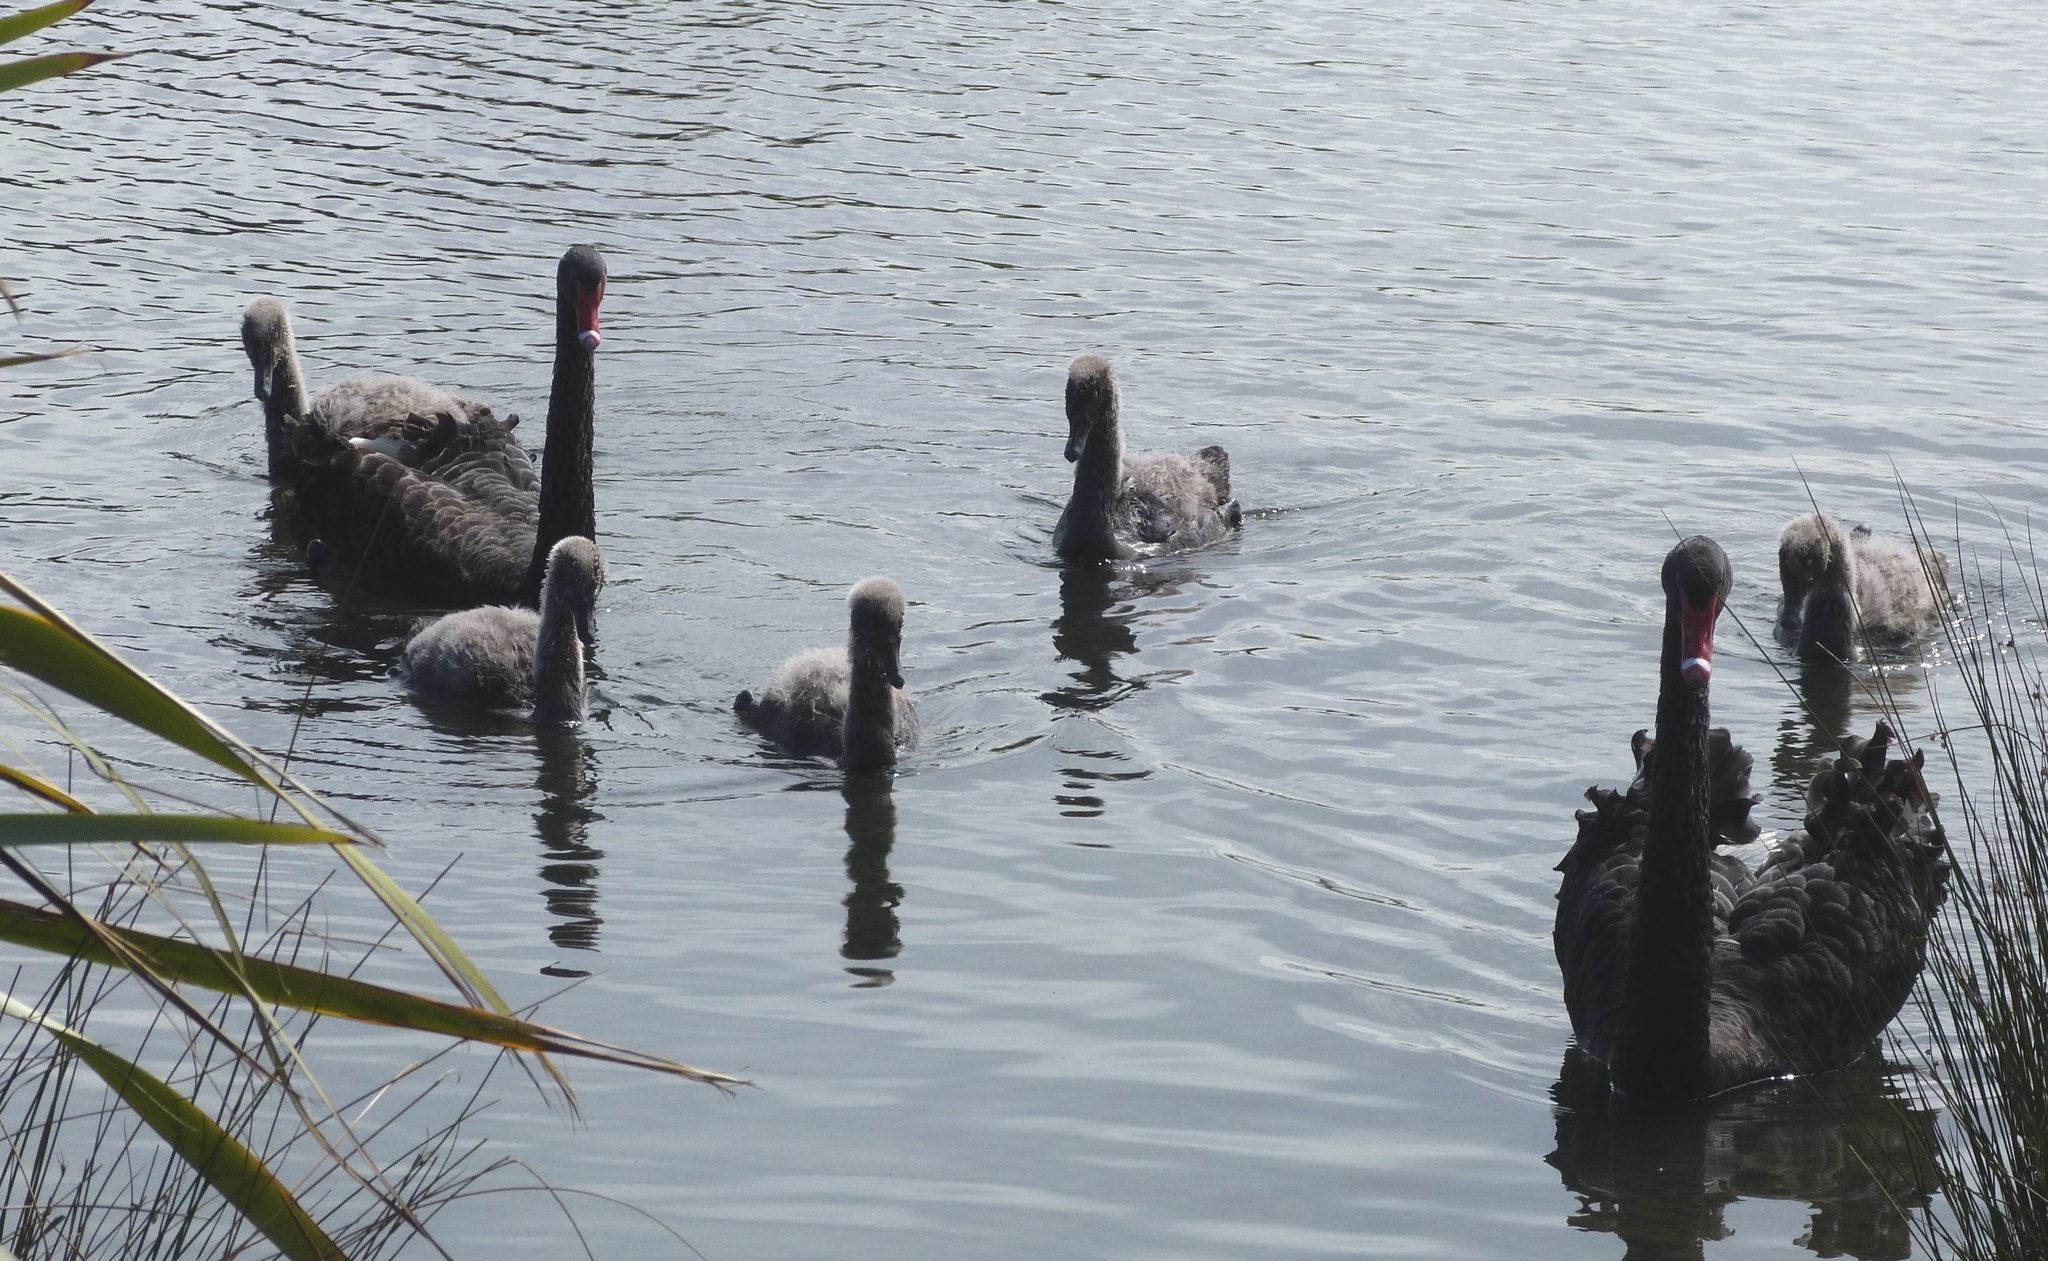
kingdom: Animalia
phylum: Chordata
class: Aves
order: Anseriformes
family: Anatidae
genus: Cygnus
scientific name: Cygnus atratus
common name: Black swan
